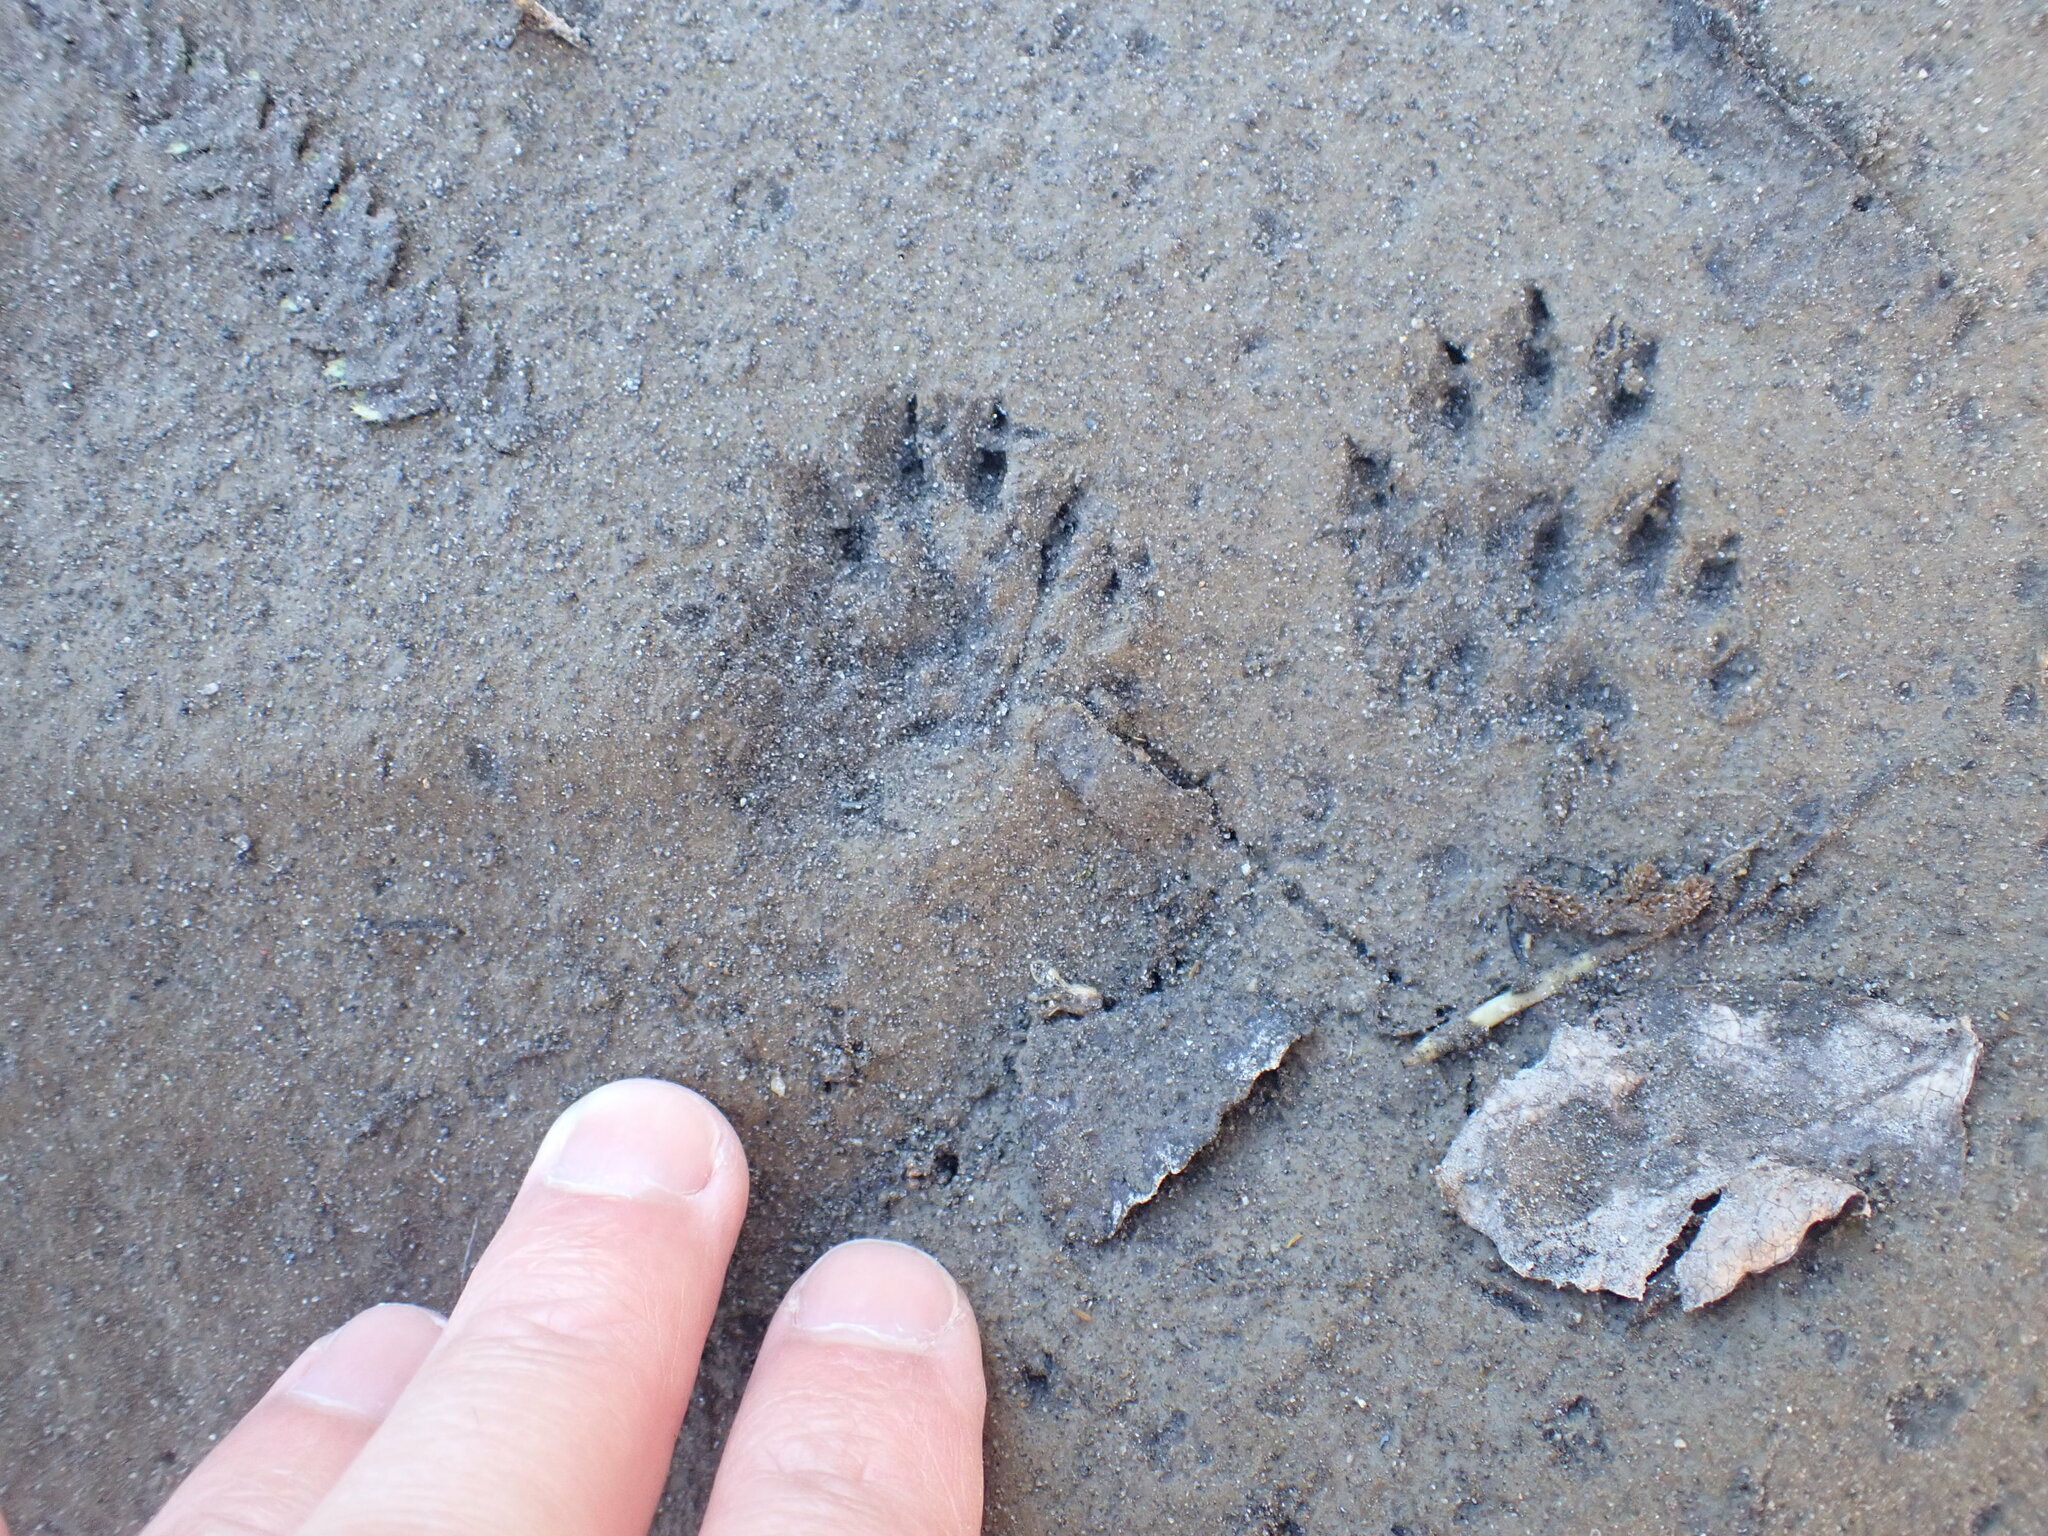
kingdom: Animalia
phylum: Chordata
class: Mammalia
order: Erinaceomorpha
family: Erinaceidae
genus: Erinaceus
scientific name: Erinaceus europaeus
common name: West european hedgehog
